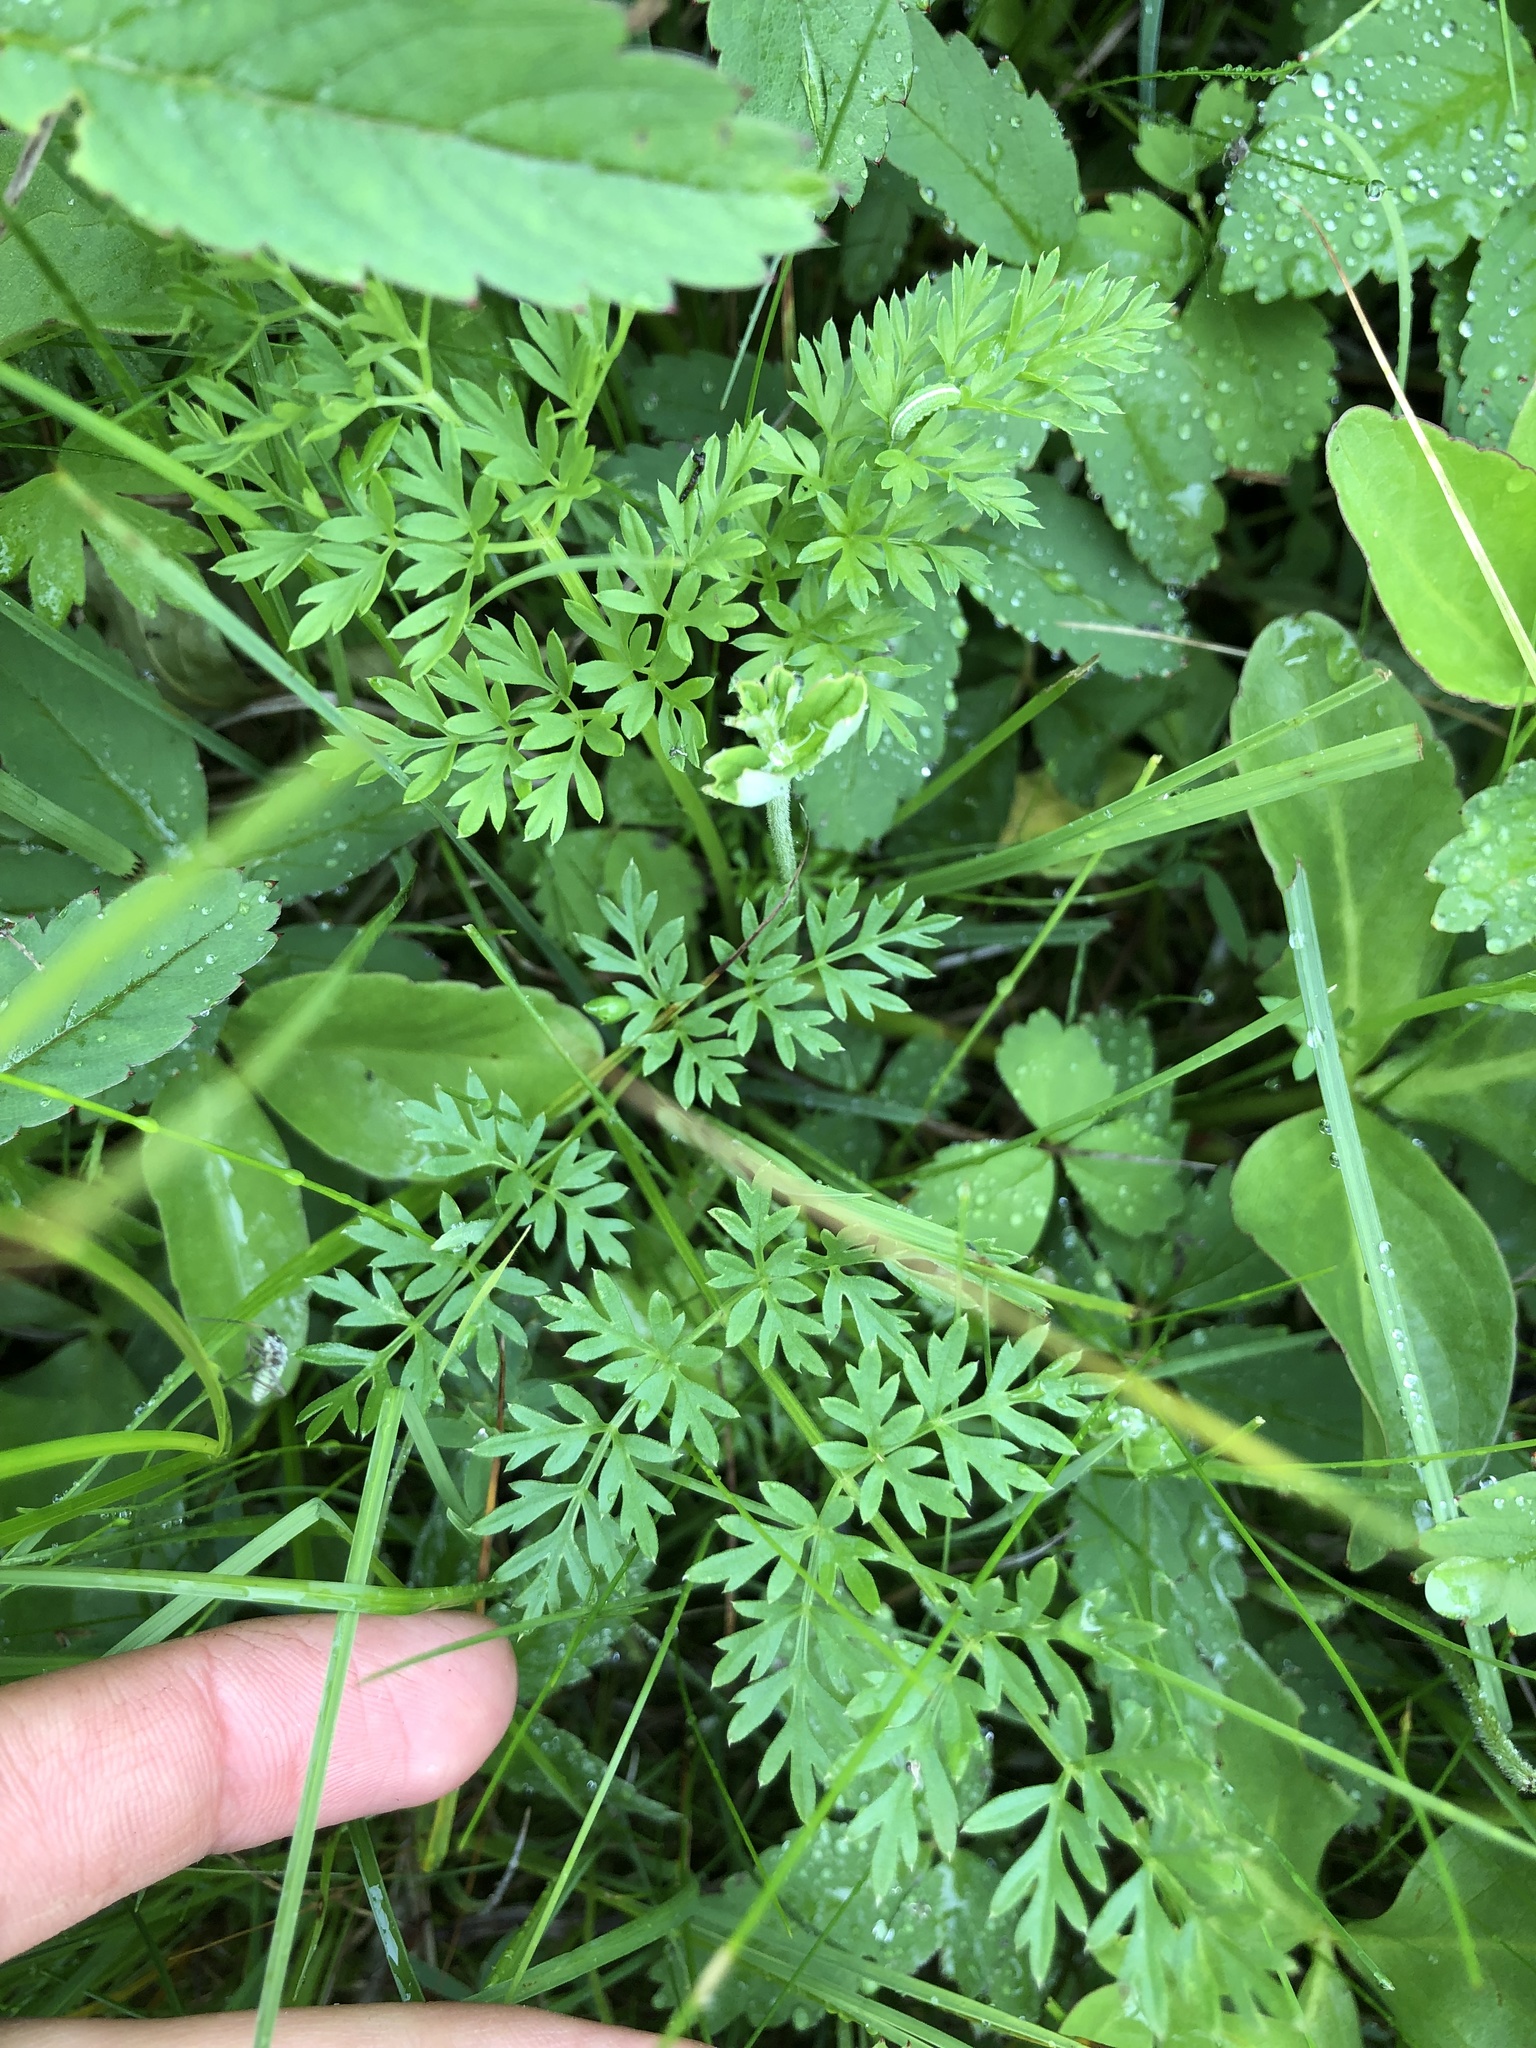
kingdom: Plantae
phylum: Tracheophyta
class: Magnoliopsida
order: Apiales
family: Apiaceae
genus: Selinum
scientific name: Selinum carvifolia
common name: Cambridge milk-parsley
